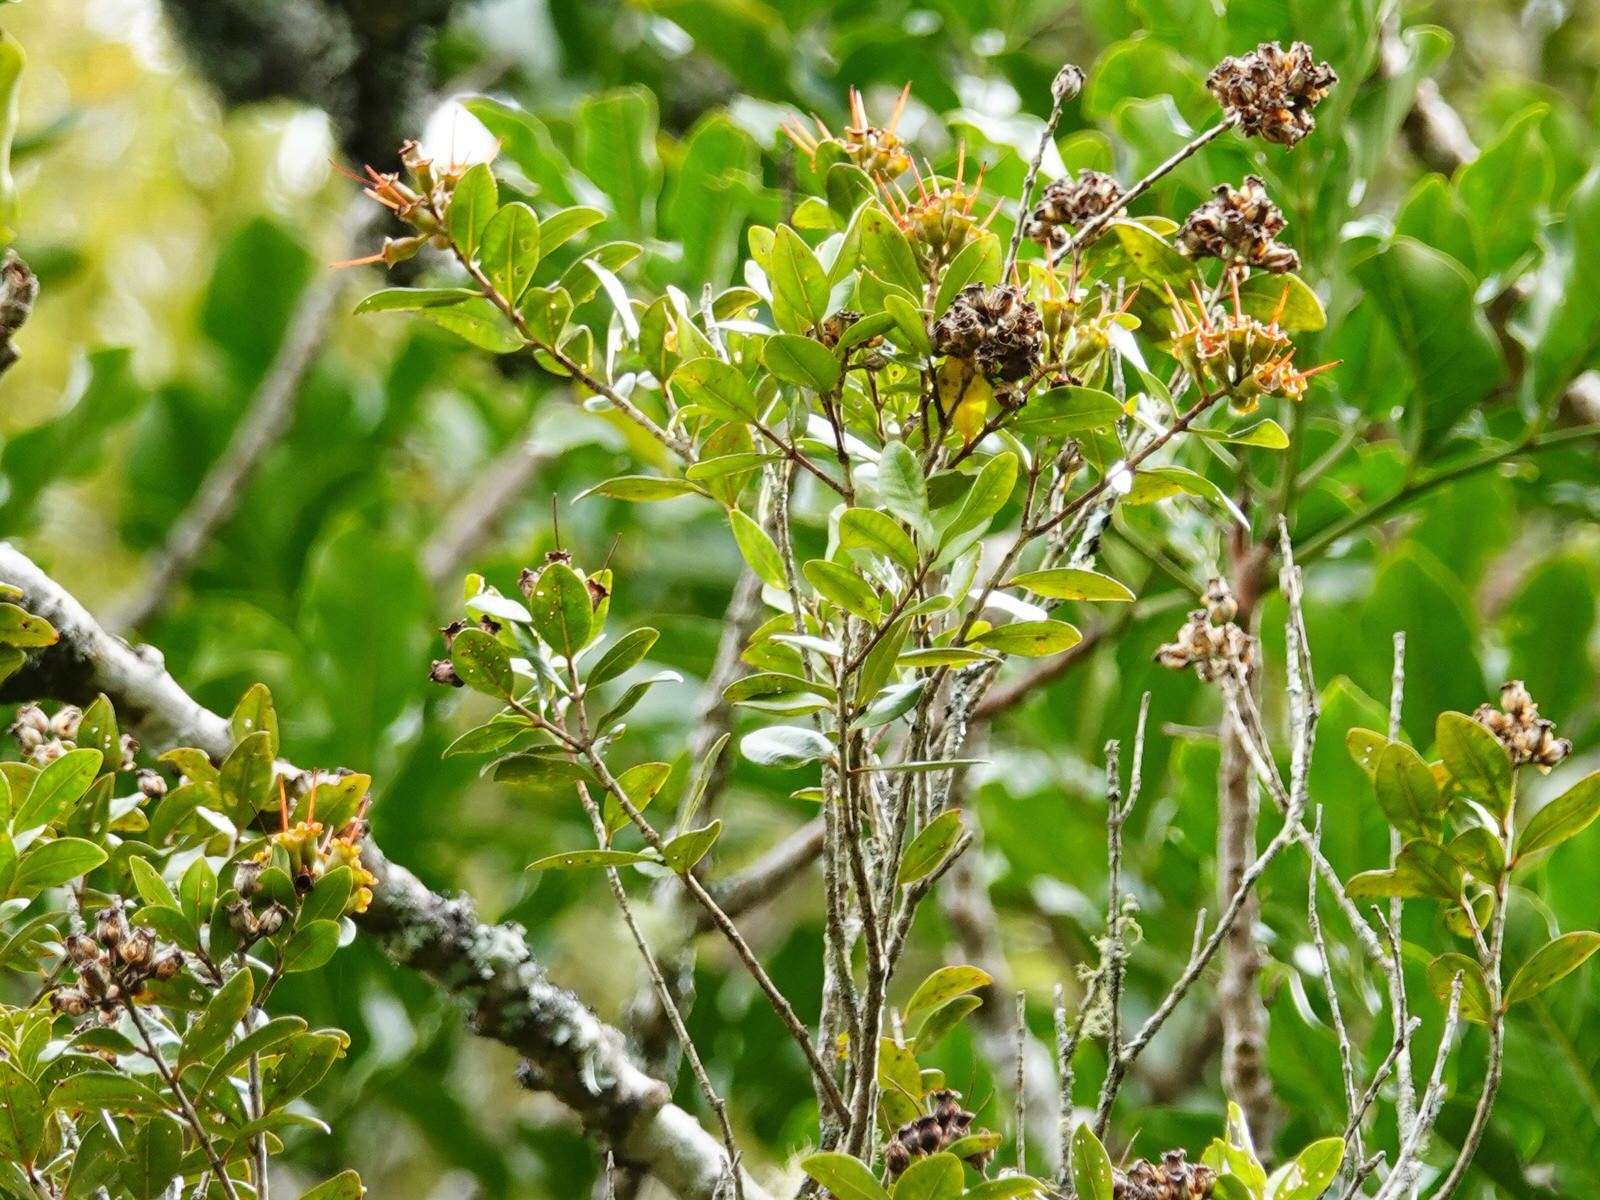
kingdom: Plantae
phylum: Tracheophyta
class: Magnoliopsida
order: Myrtales
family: Myrtaceae
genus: Metrosideros
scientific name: Metrosideros fulgens
